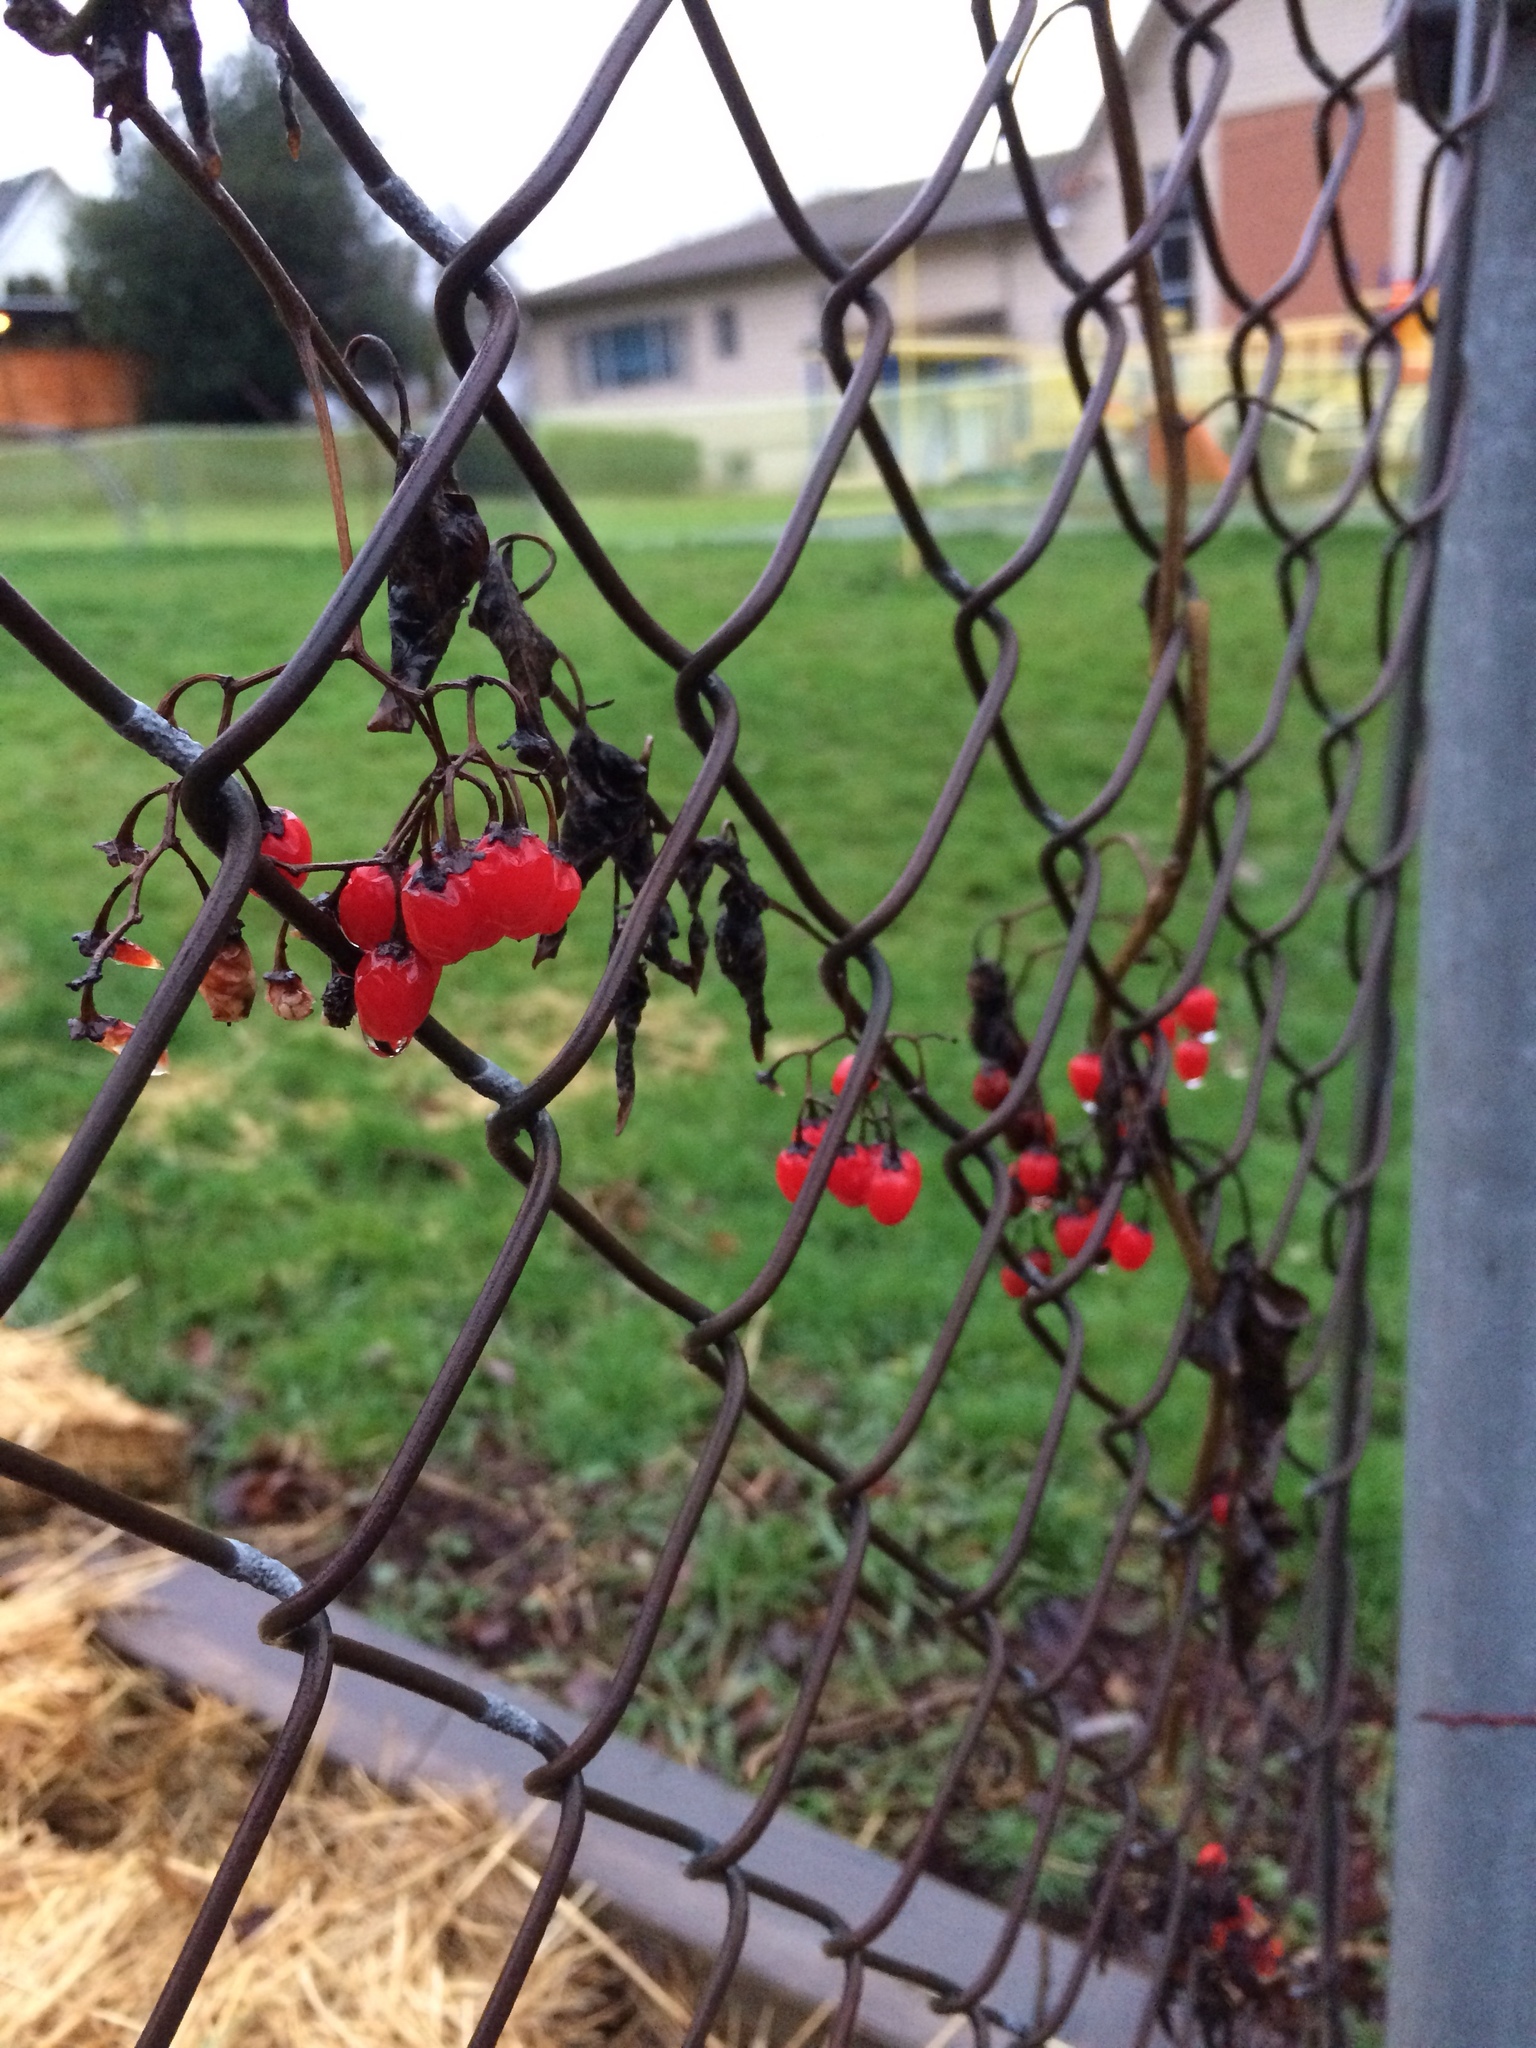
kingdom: Plantae
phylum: Tracheophyta
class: Magnoliopsida
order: Solanales
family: Solanaceae
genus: Solanum
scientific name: Solanum dulcamara
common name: Climbing nightshade
